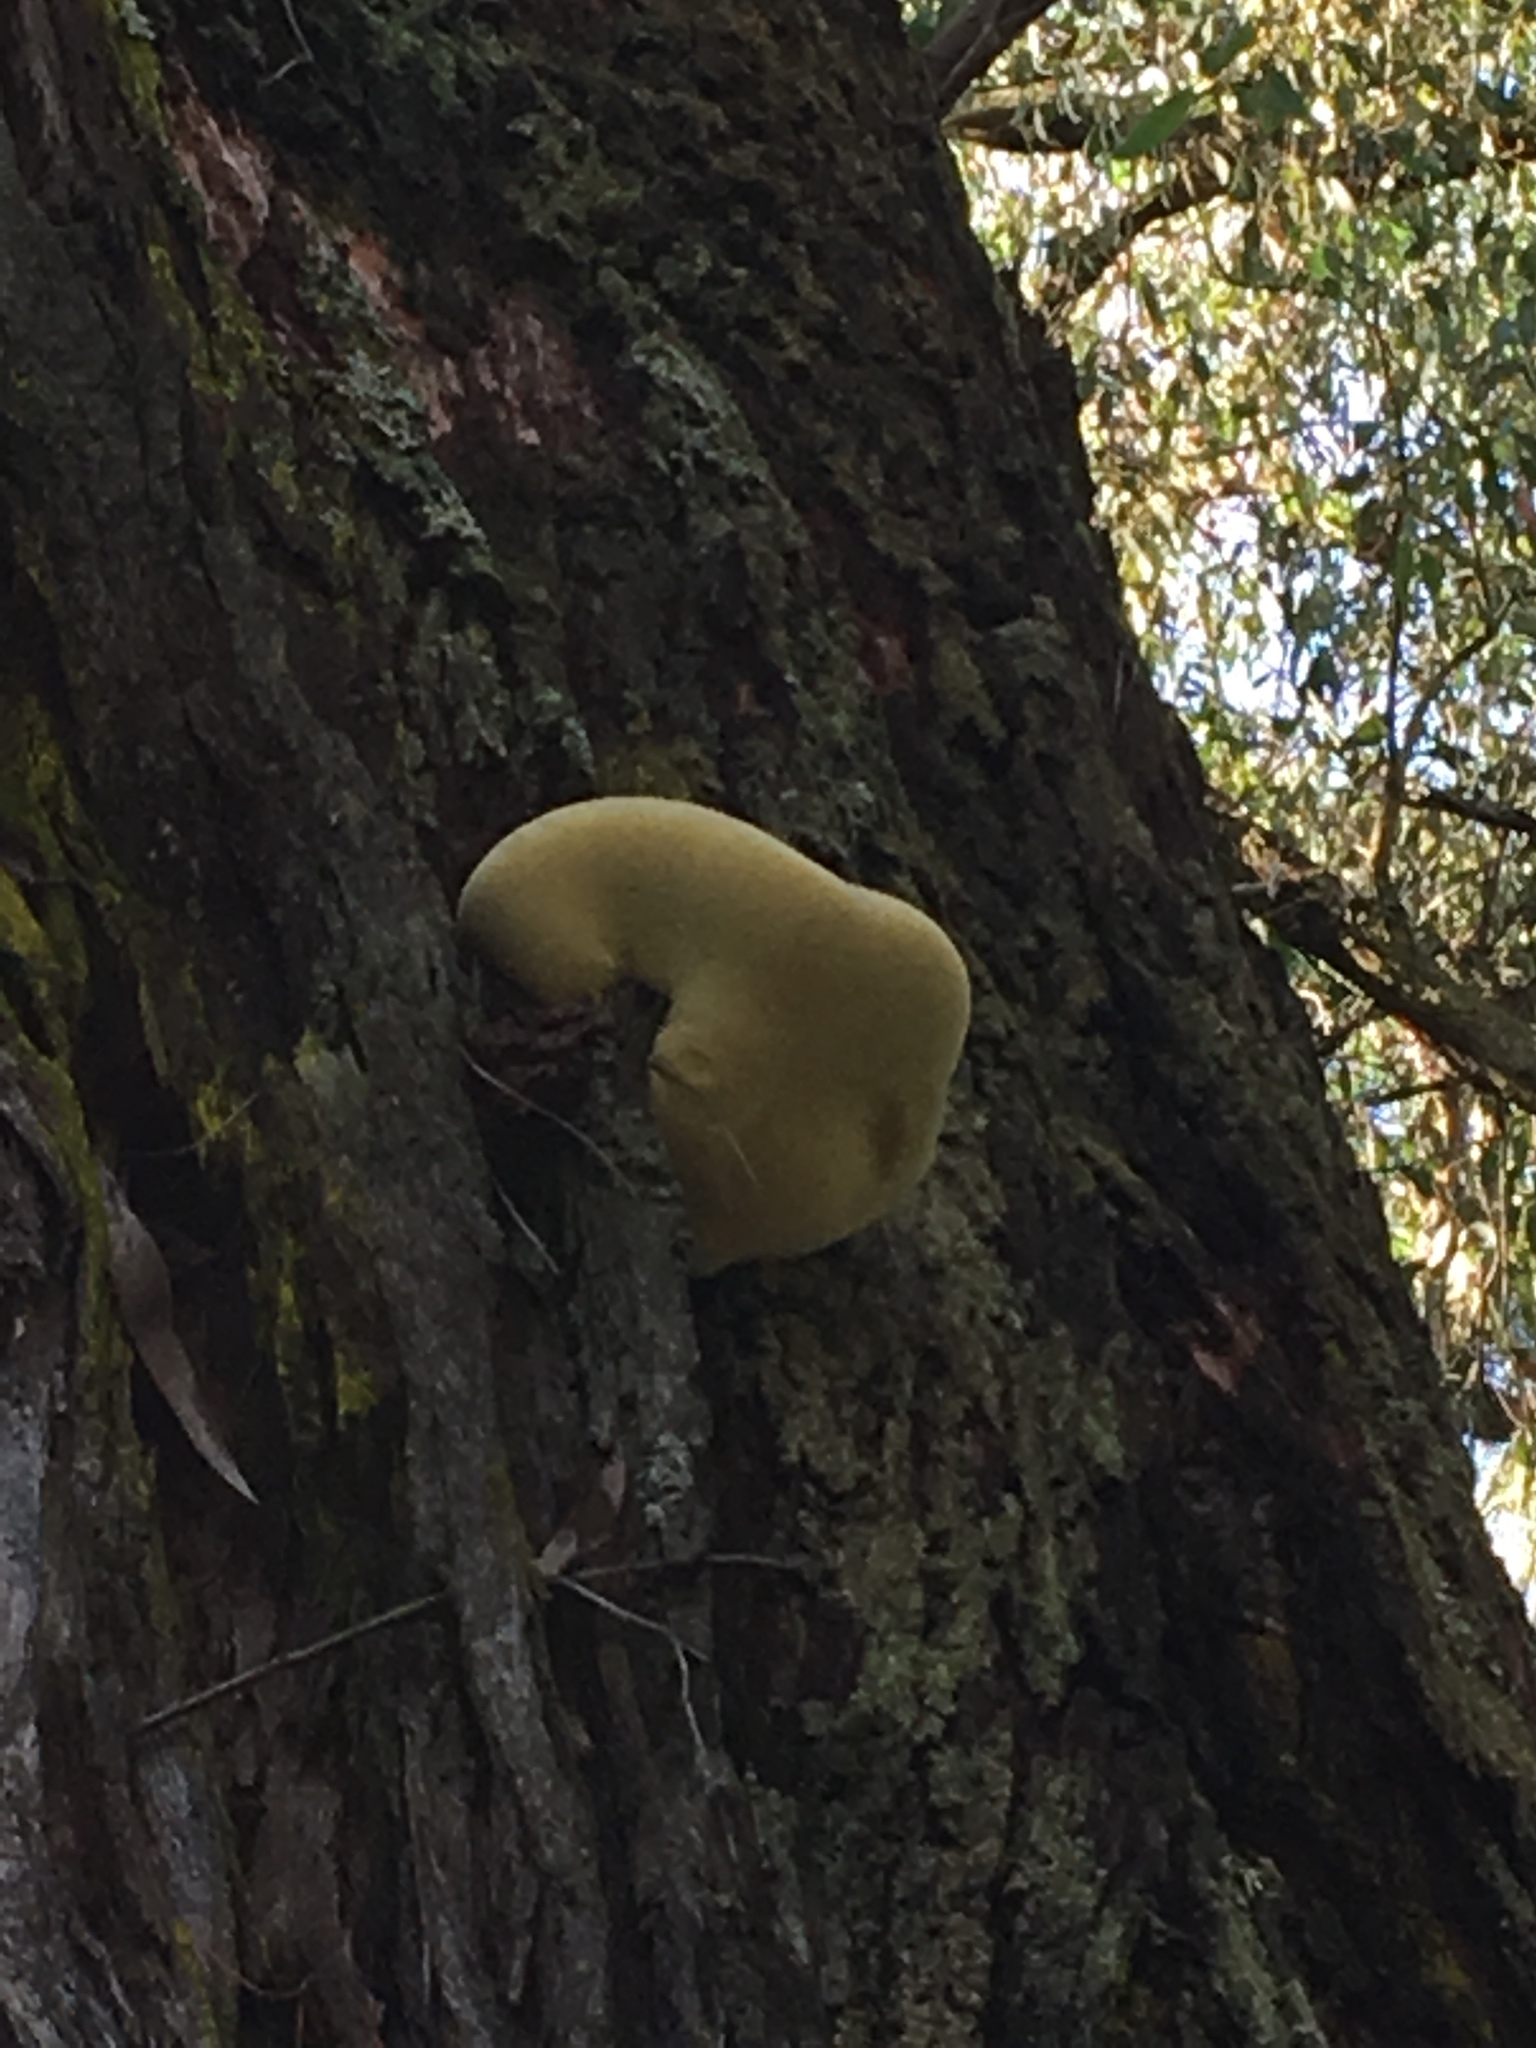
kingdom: Fungi
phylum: Basidiomycota
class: Agaricomycetes
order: Polyporales
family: Laetiporaceae
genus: Laetiporus
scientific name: Laetiporus portentosus
